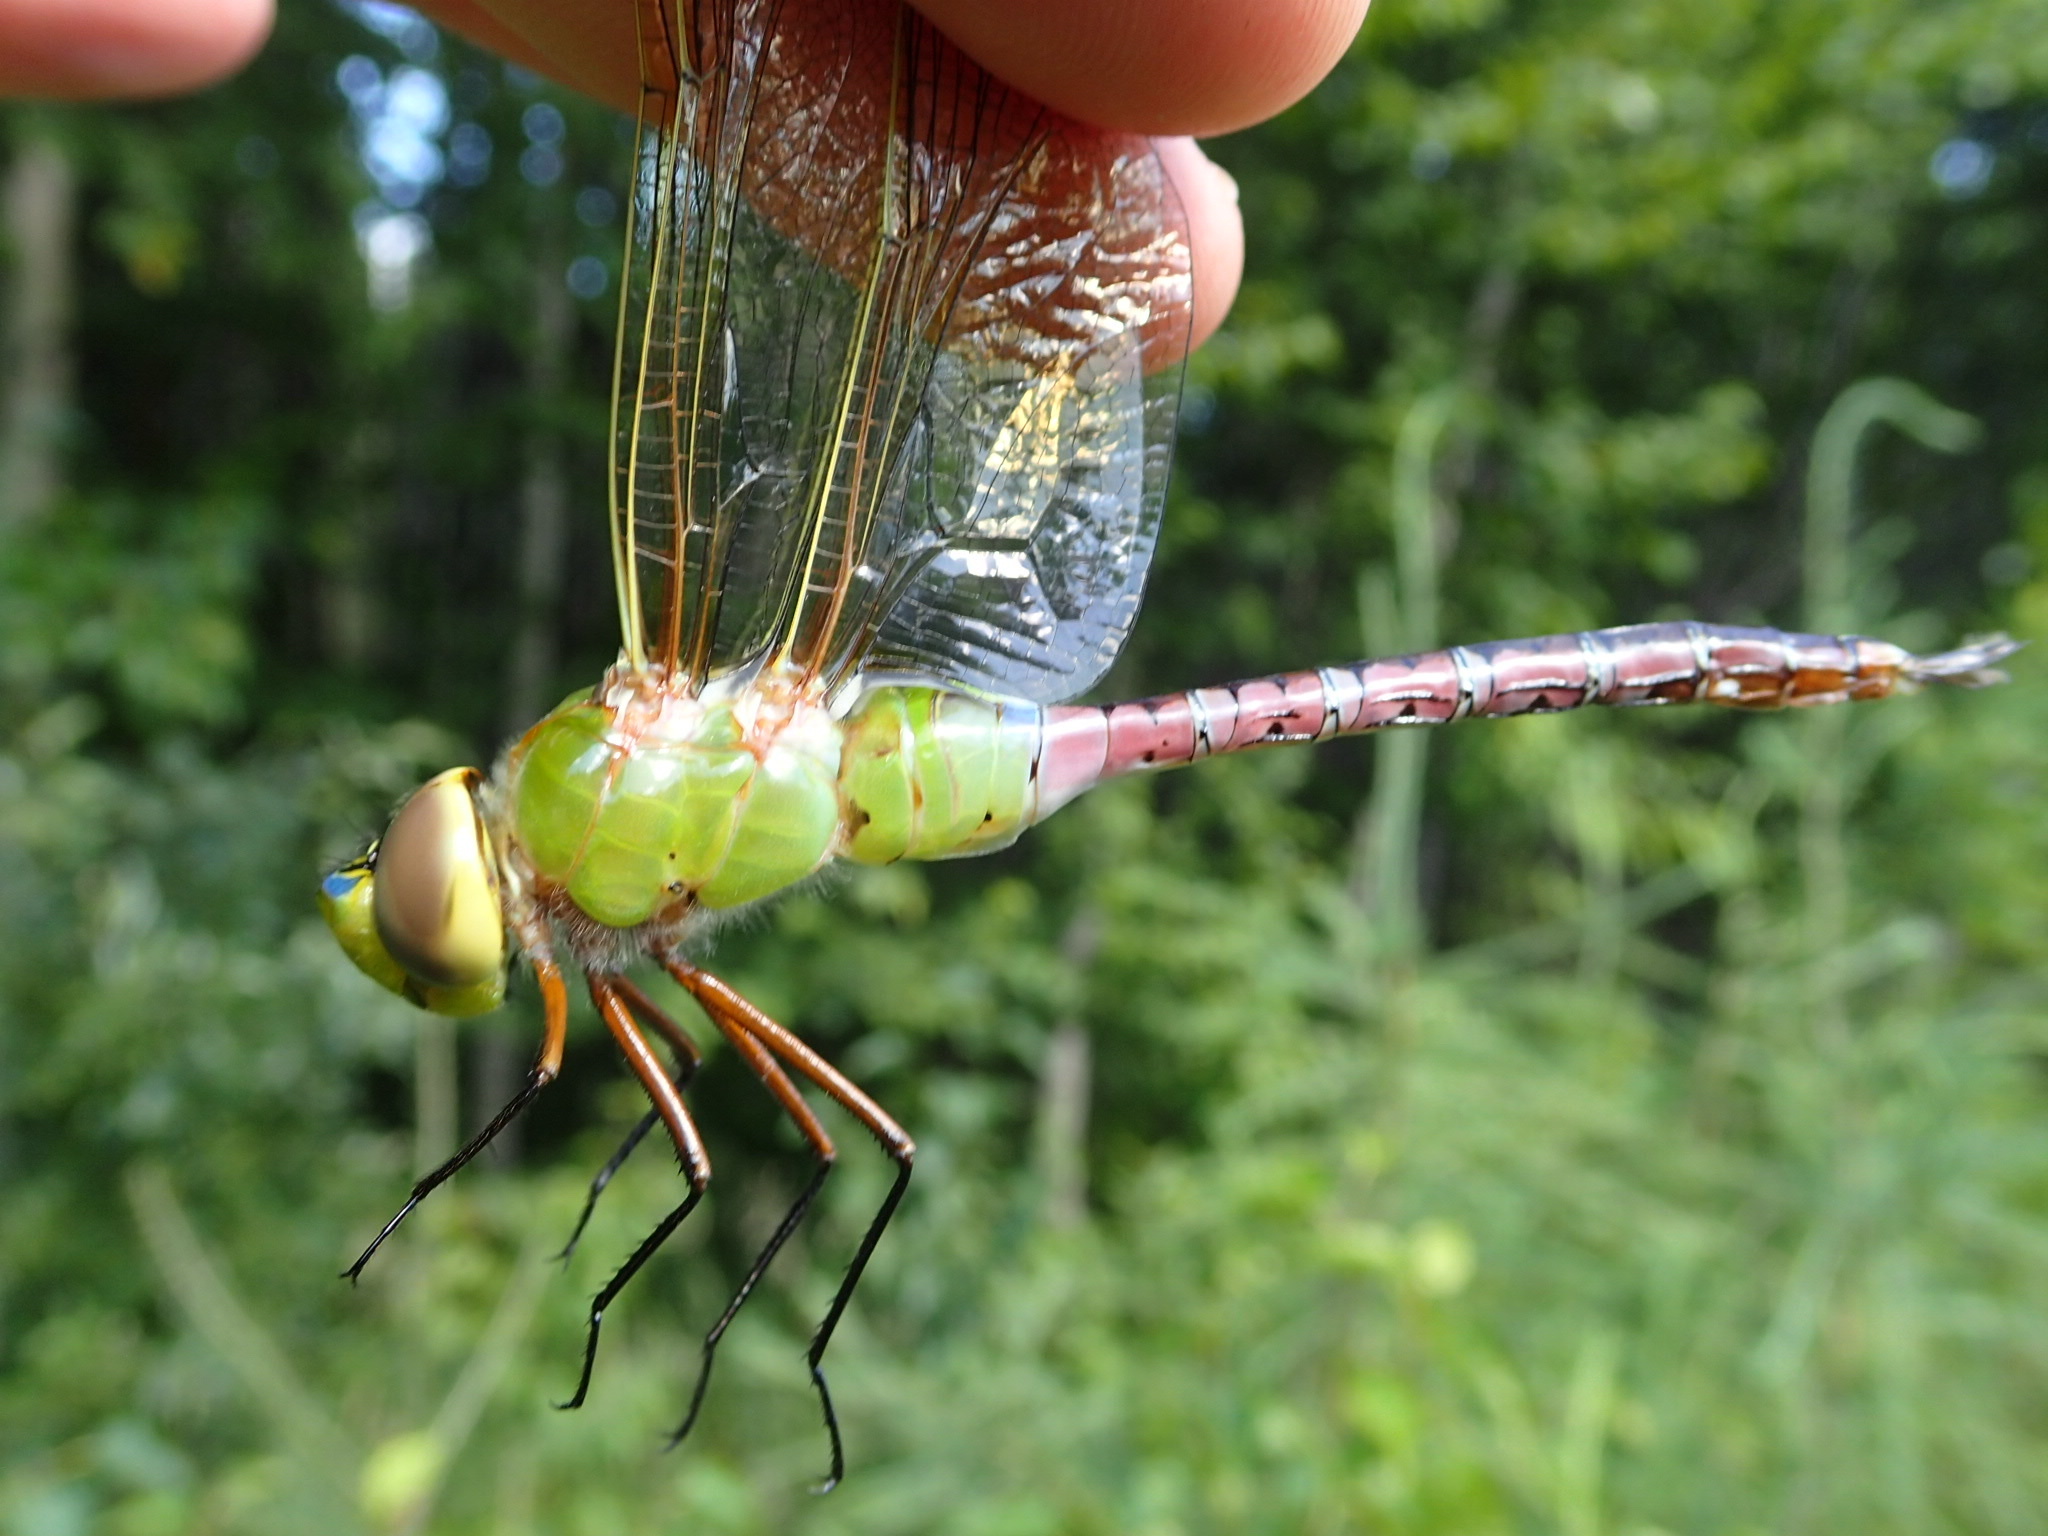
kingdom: Animalia
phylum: Arthropoda
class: Insecta
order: Odonata
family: Aeshnidae
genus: Anax
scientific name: Anax junius
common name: Common green darner
